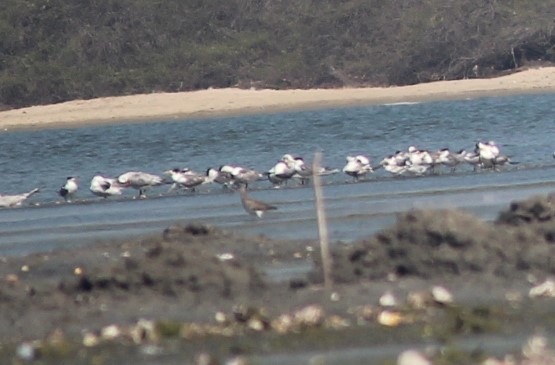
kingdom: Animalia
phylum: Chordata
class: Aves
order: Charadriiformes
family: Scolopacidae
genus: Numenius
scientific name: Numenius arquata
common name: Eurasian curlew
